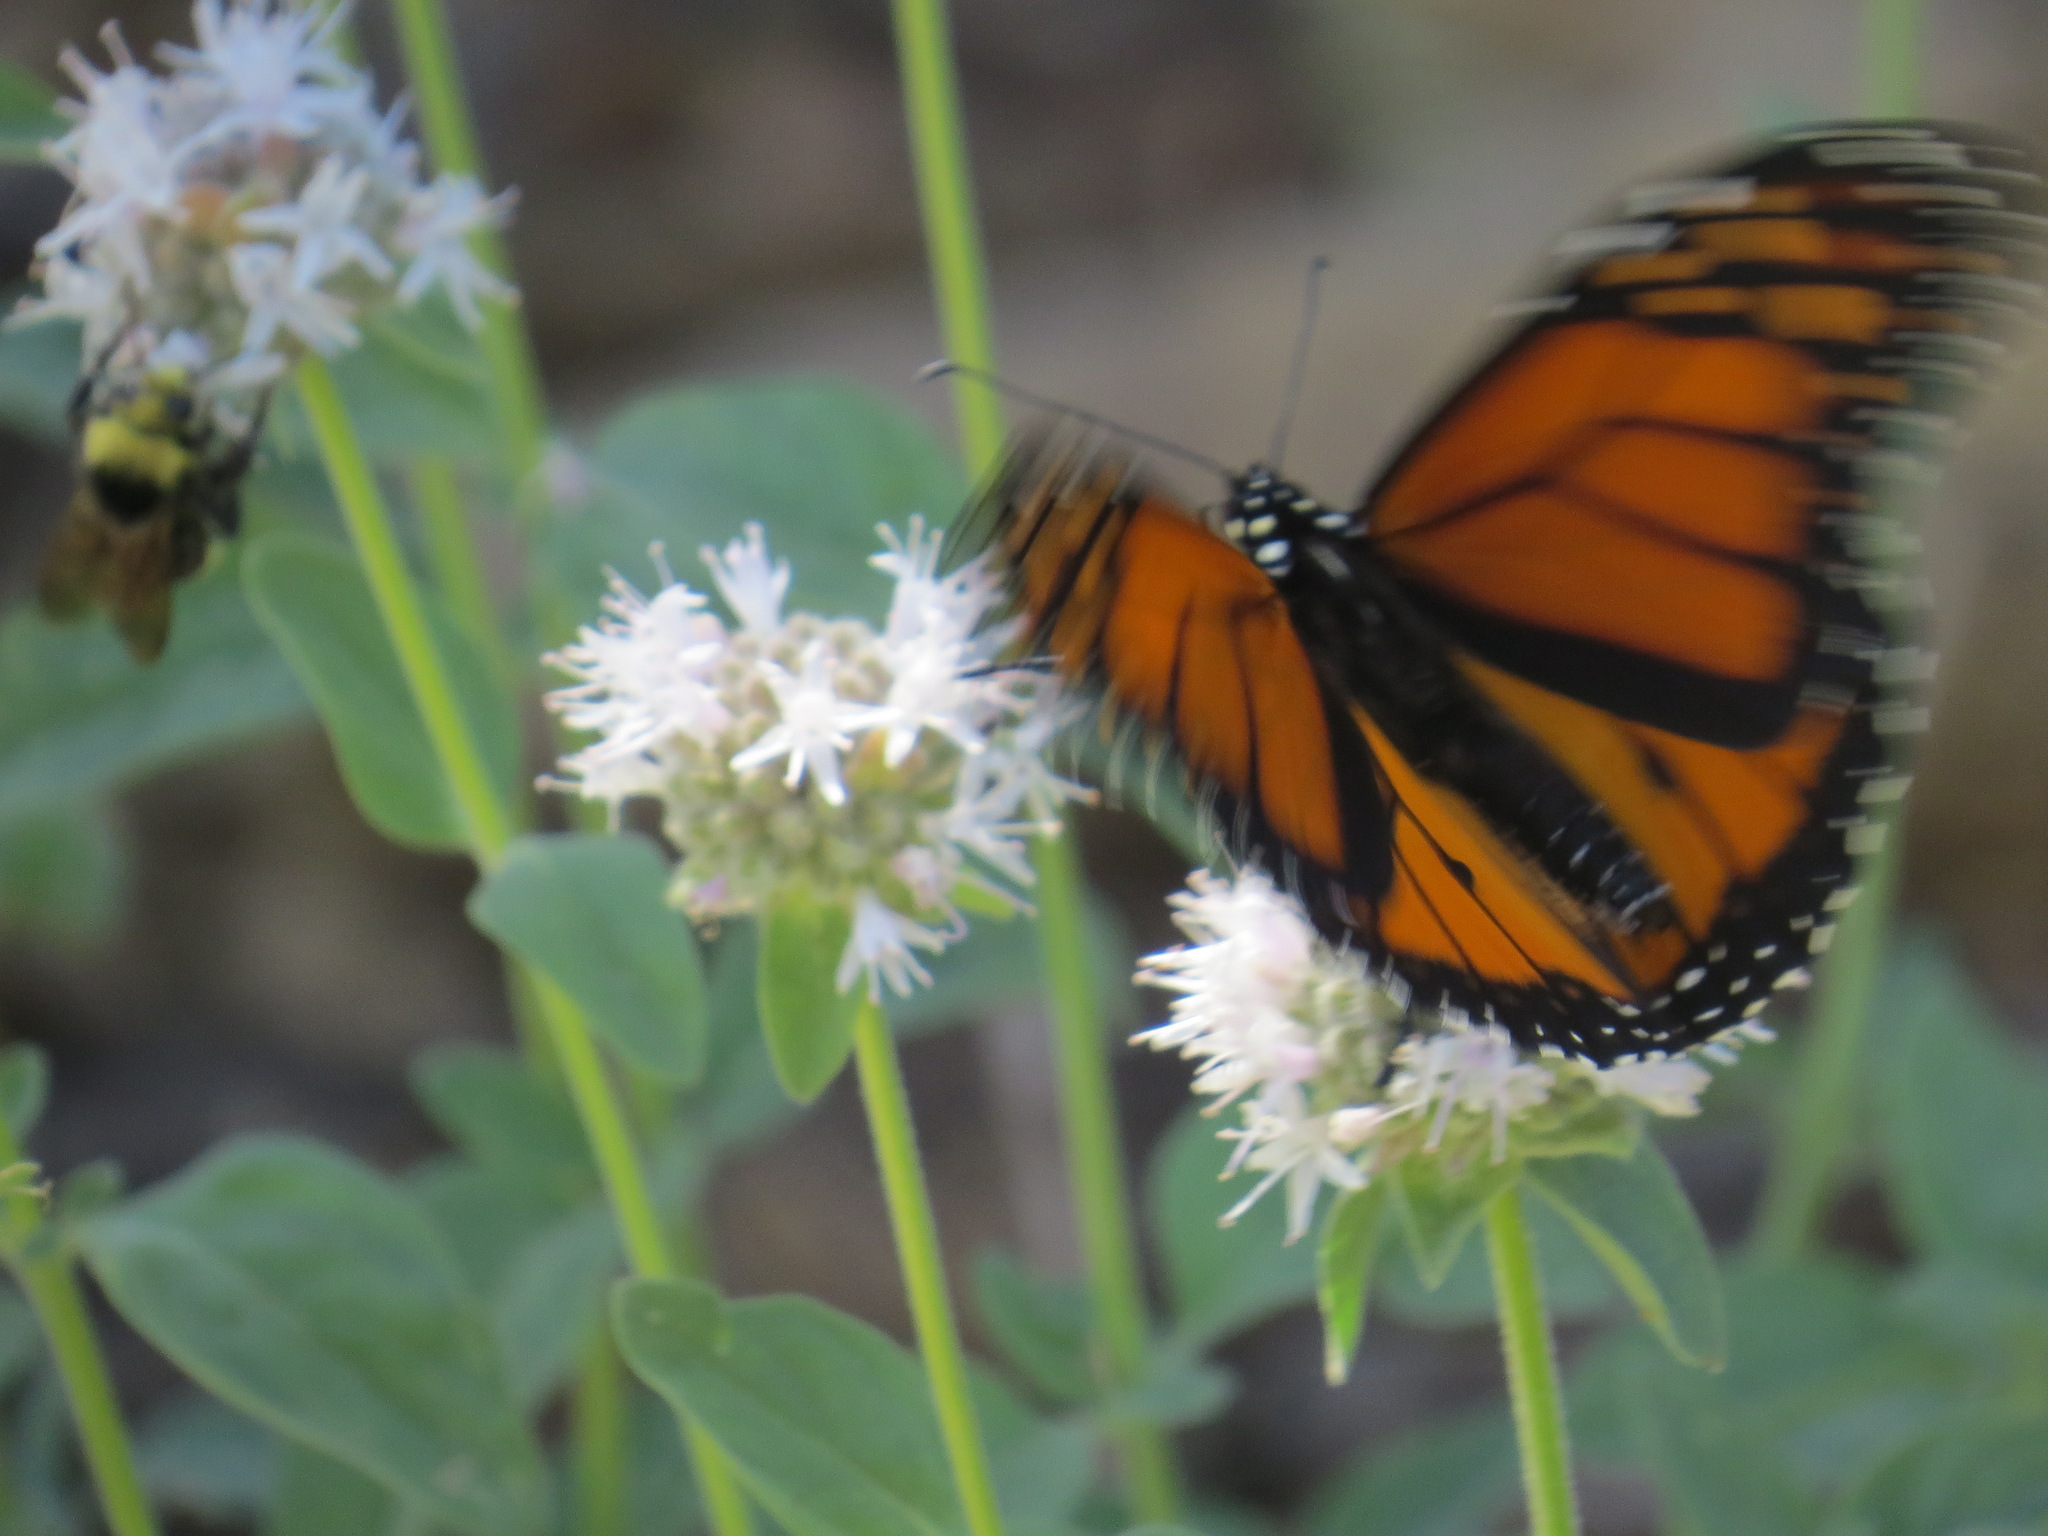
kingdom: Animalia
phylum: Arthropoda
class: Insecta
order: Lepidoptera
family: Nymphalidae
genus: Danaus
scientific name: Danaus plexippus
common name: Monarch
